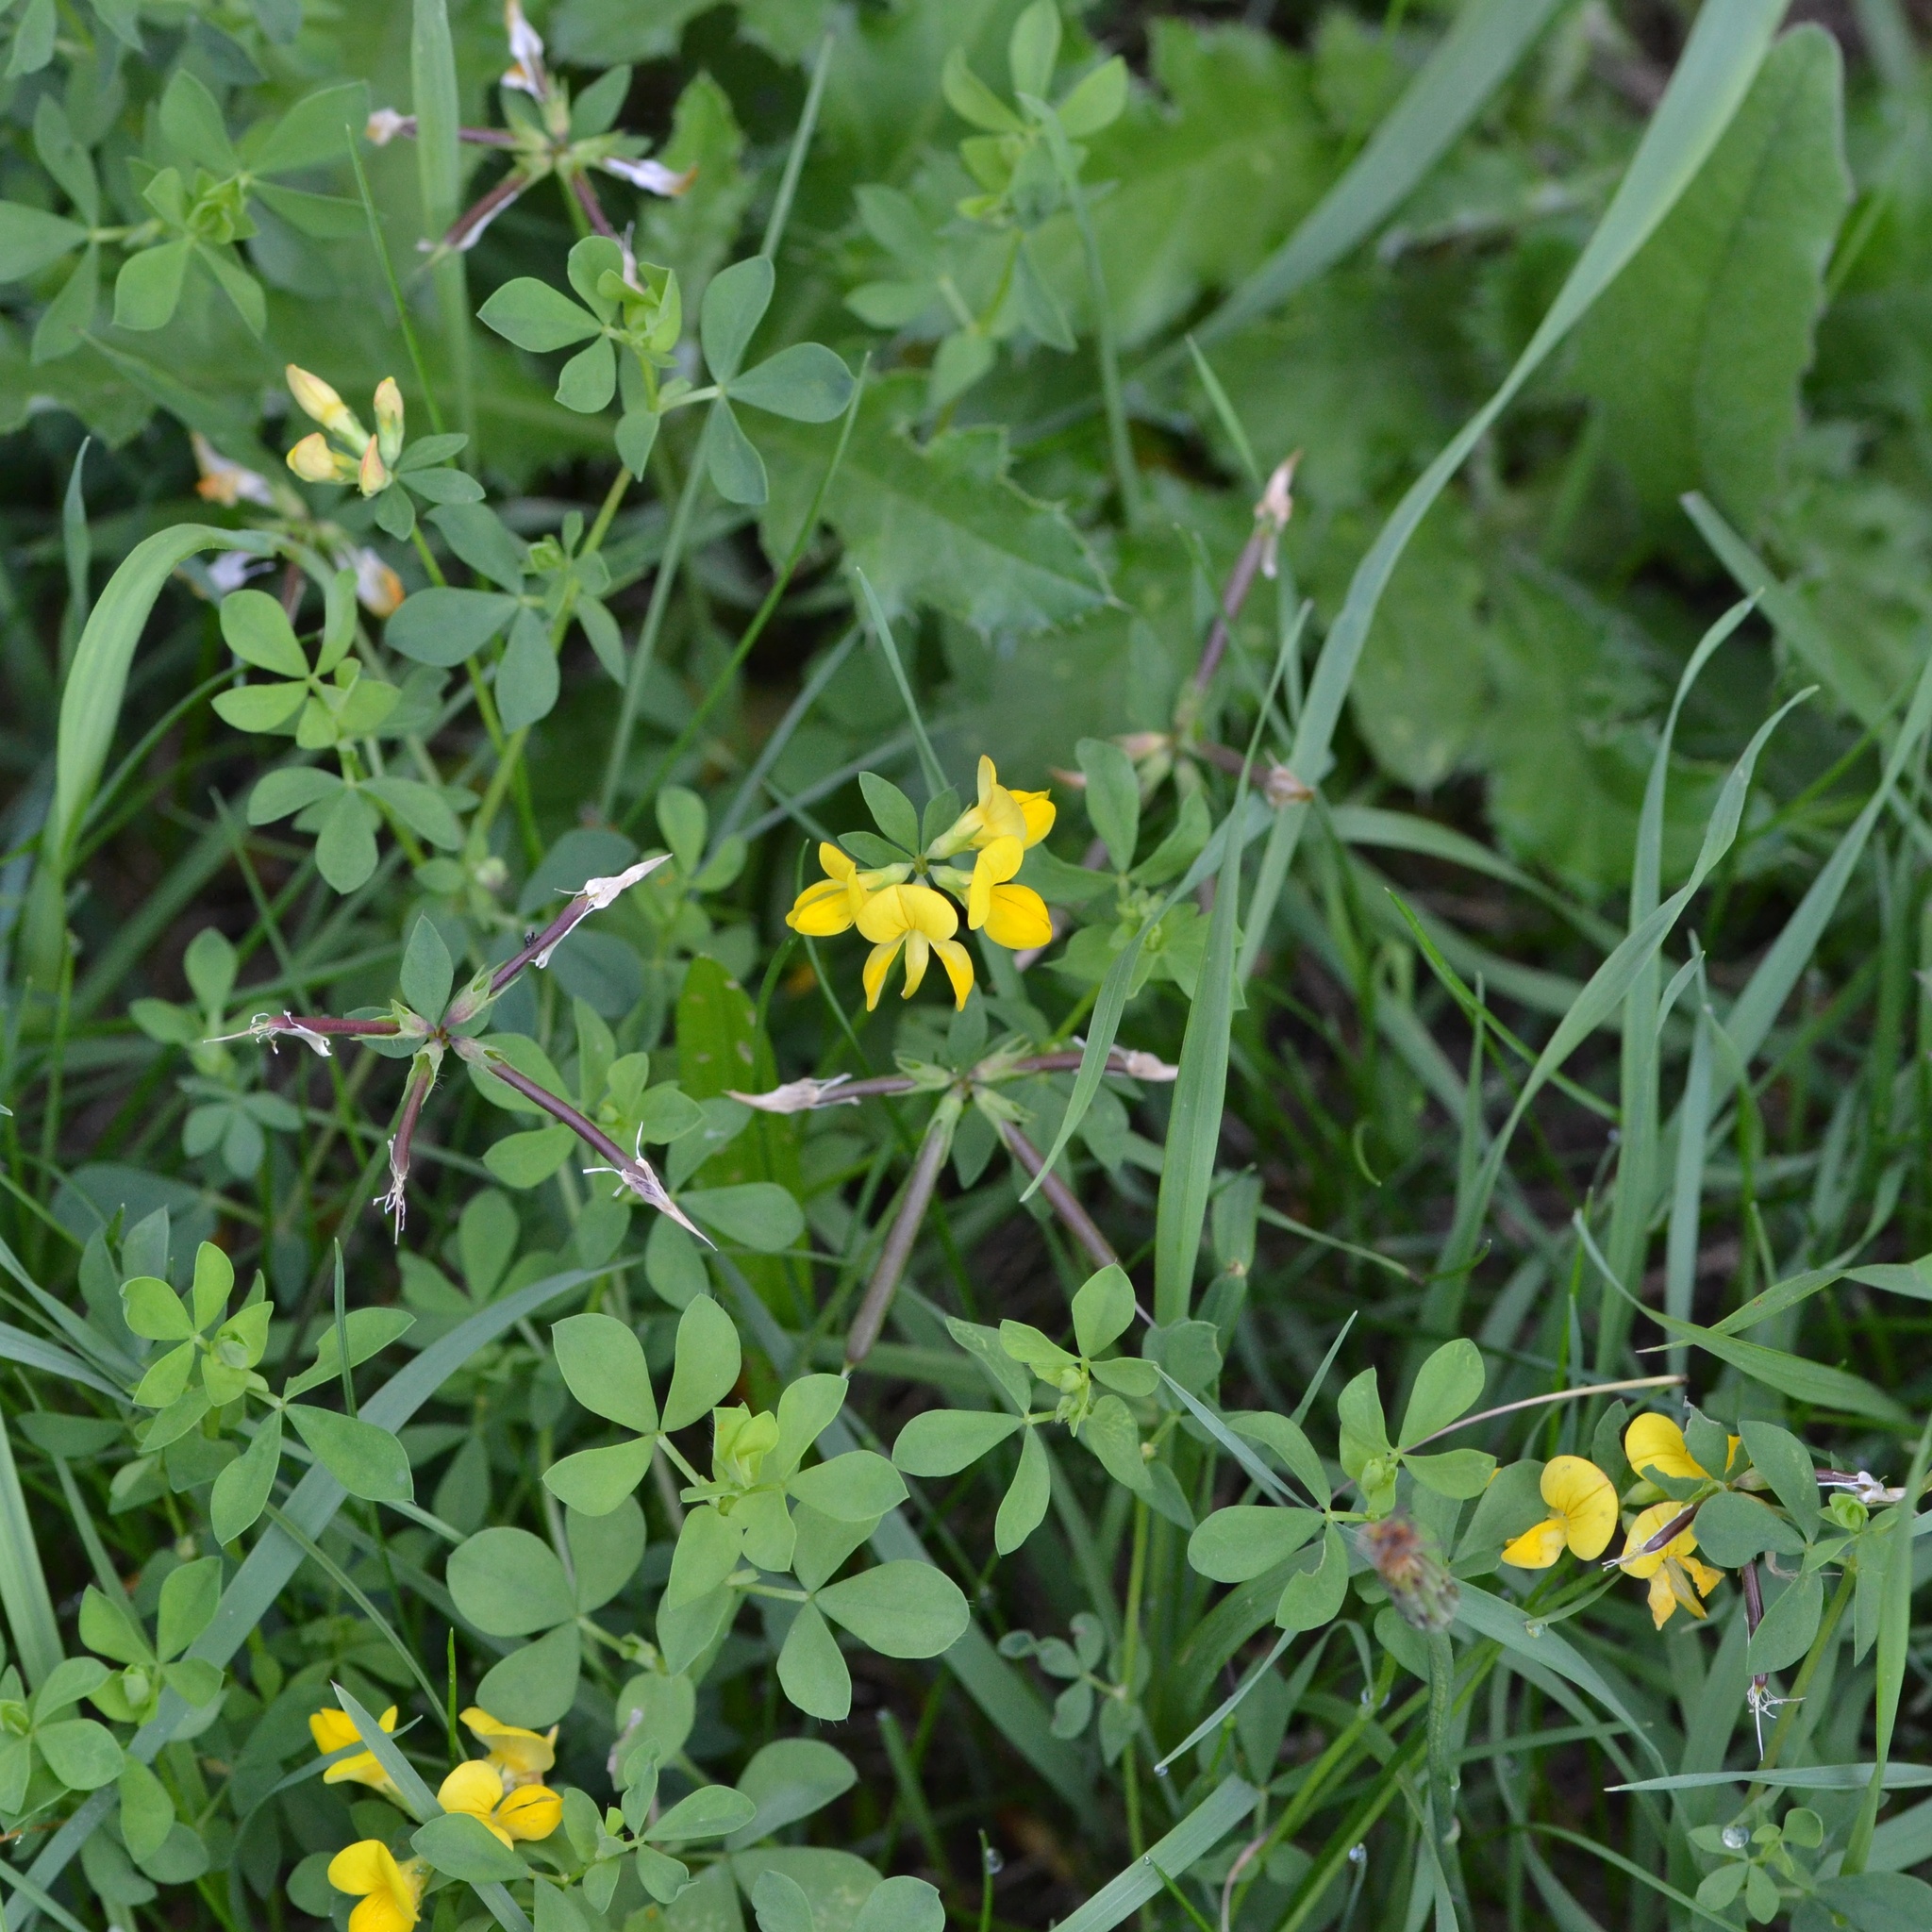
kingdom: Plantae
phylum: Tracheophyta
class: Magnoliopsida
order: Fabales
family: Fabaceae
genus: Lotus
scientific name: Lotus corniculatus
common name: Common bird's-foot-trefoil
